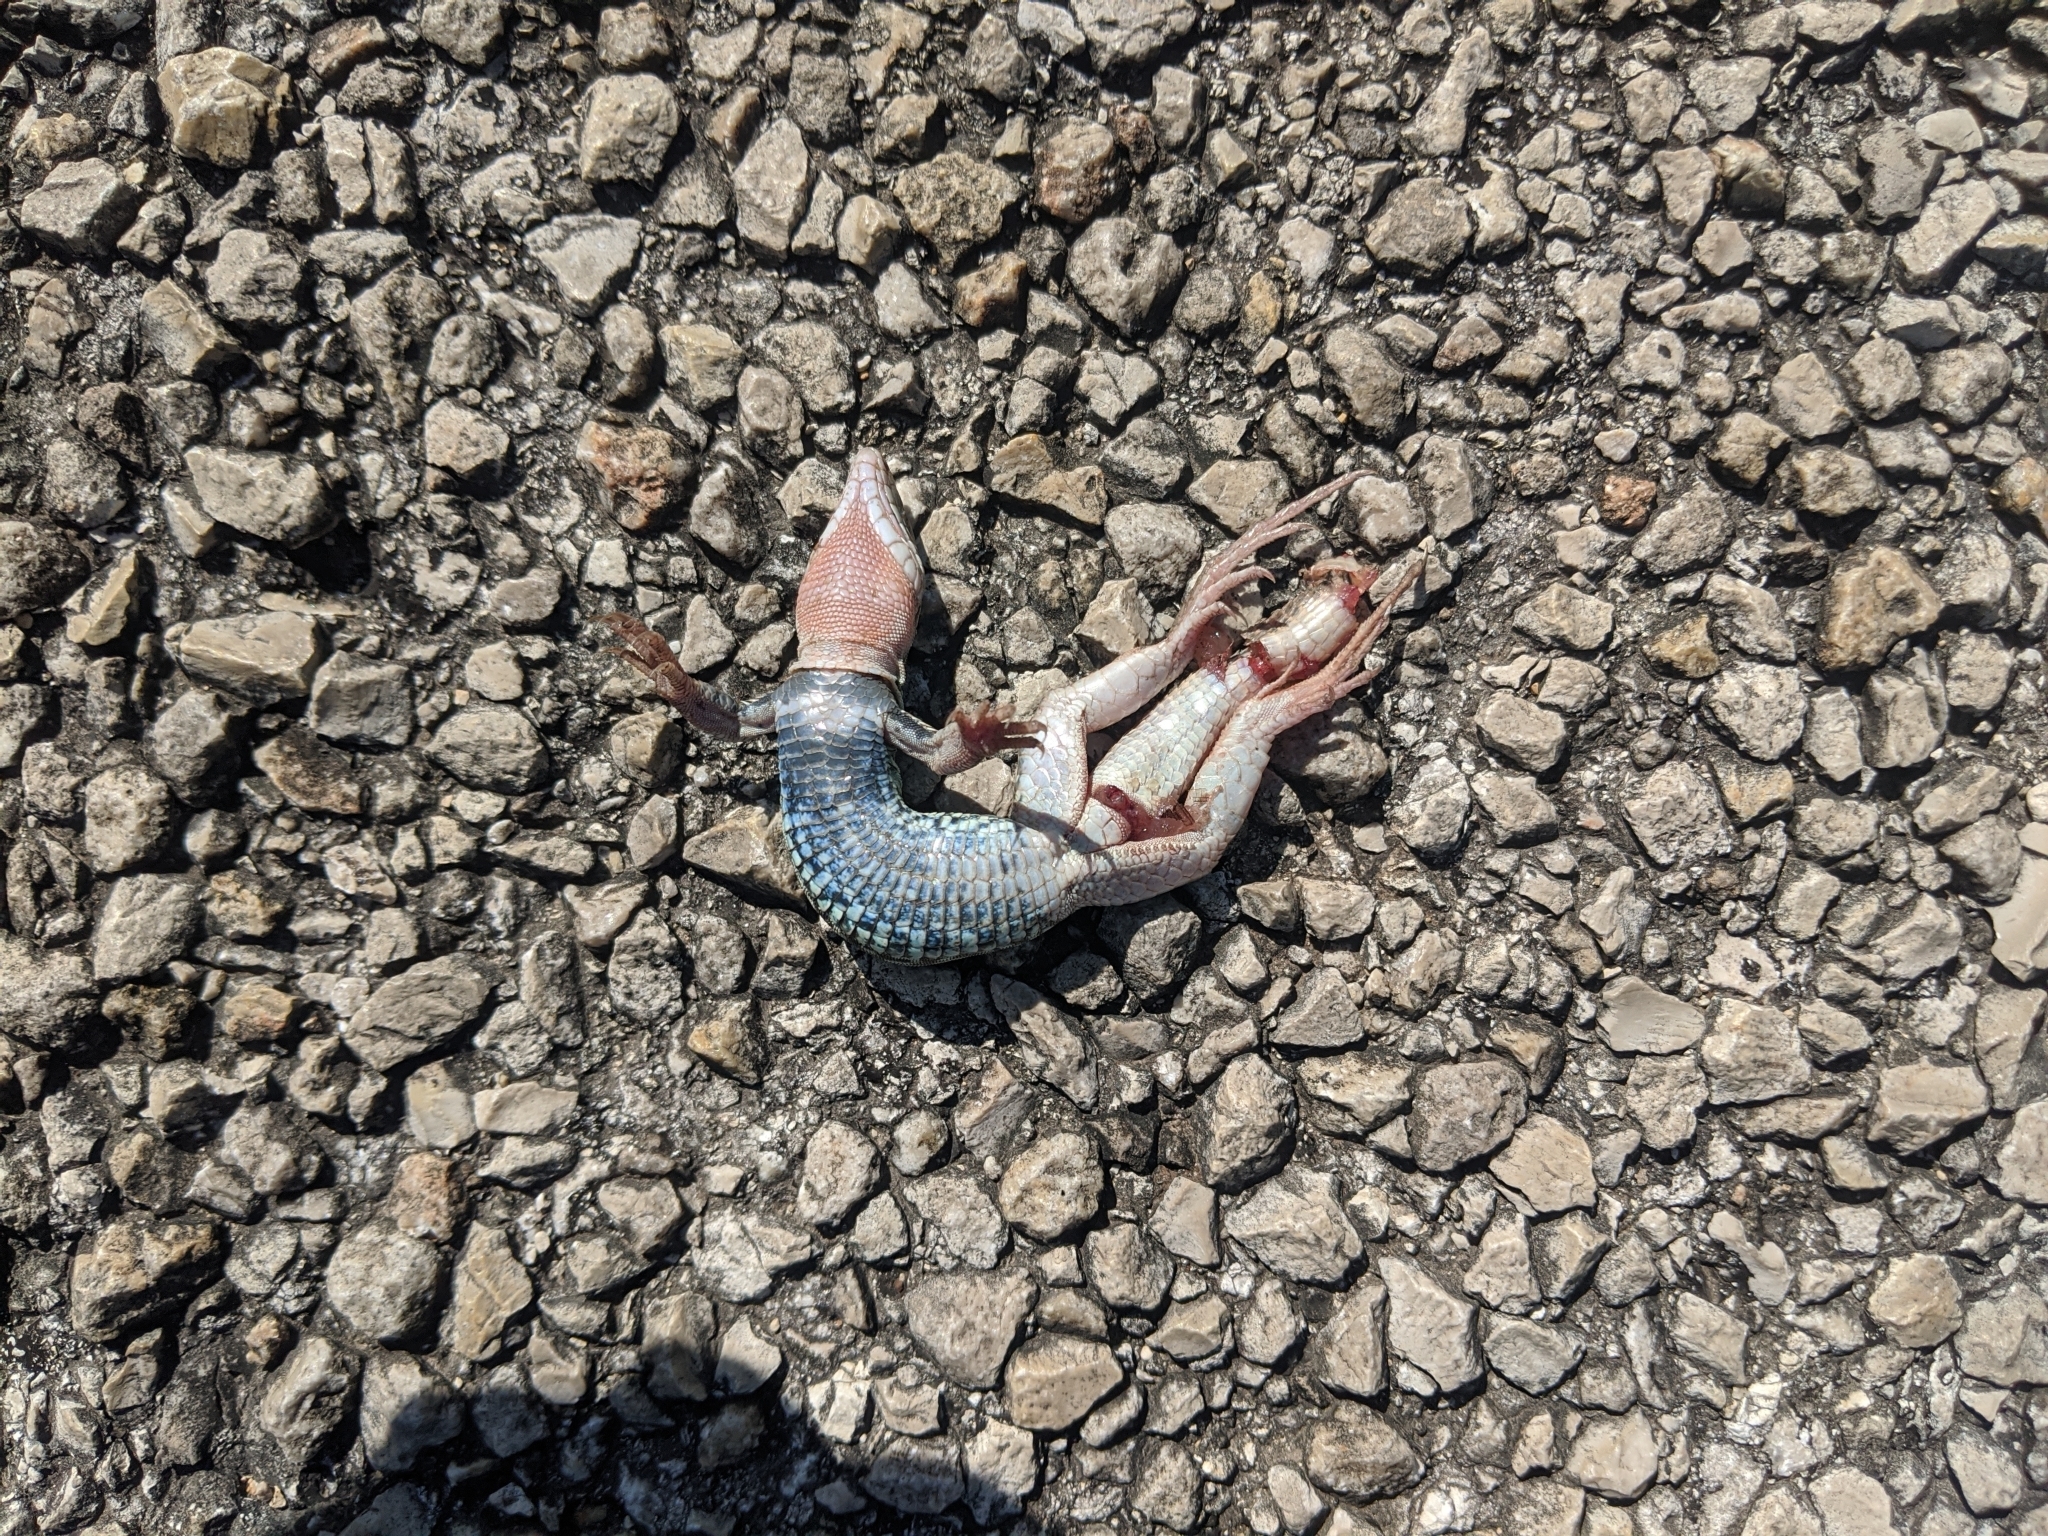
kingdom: Animalia
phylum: Chordata
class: Squamata
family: Teiidae
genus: Aspidoscelis
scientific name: Aspidoscelis gularis
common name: Eastern spotted whiptail
